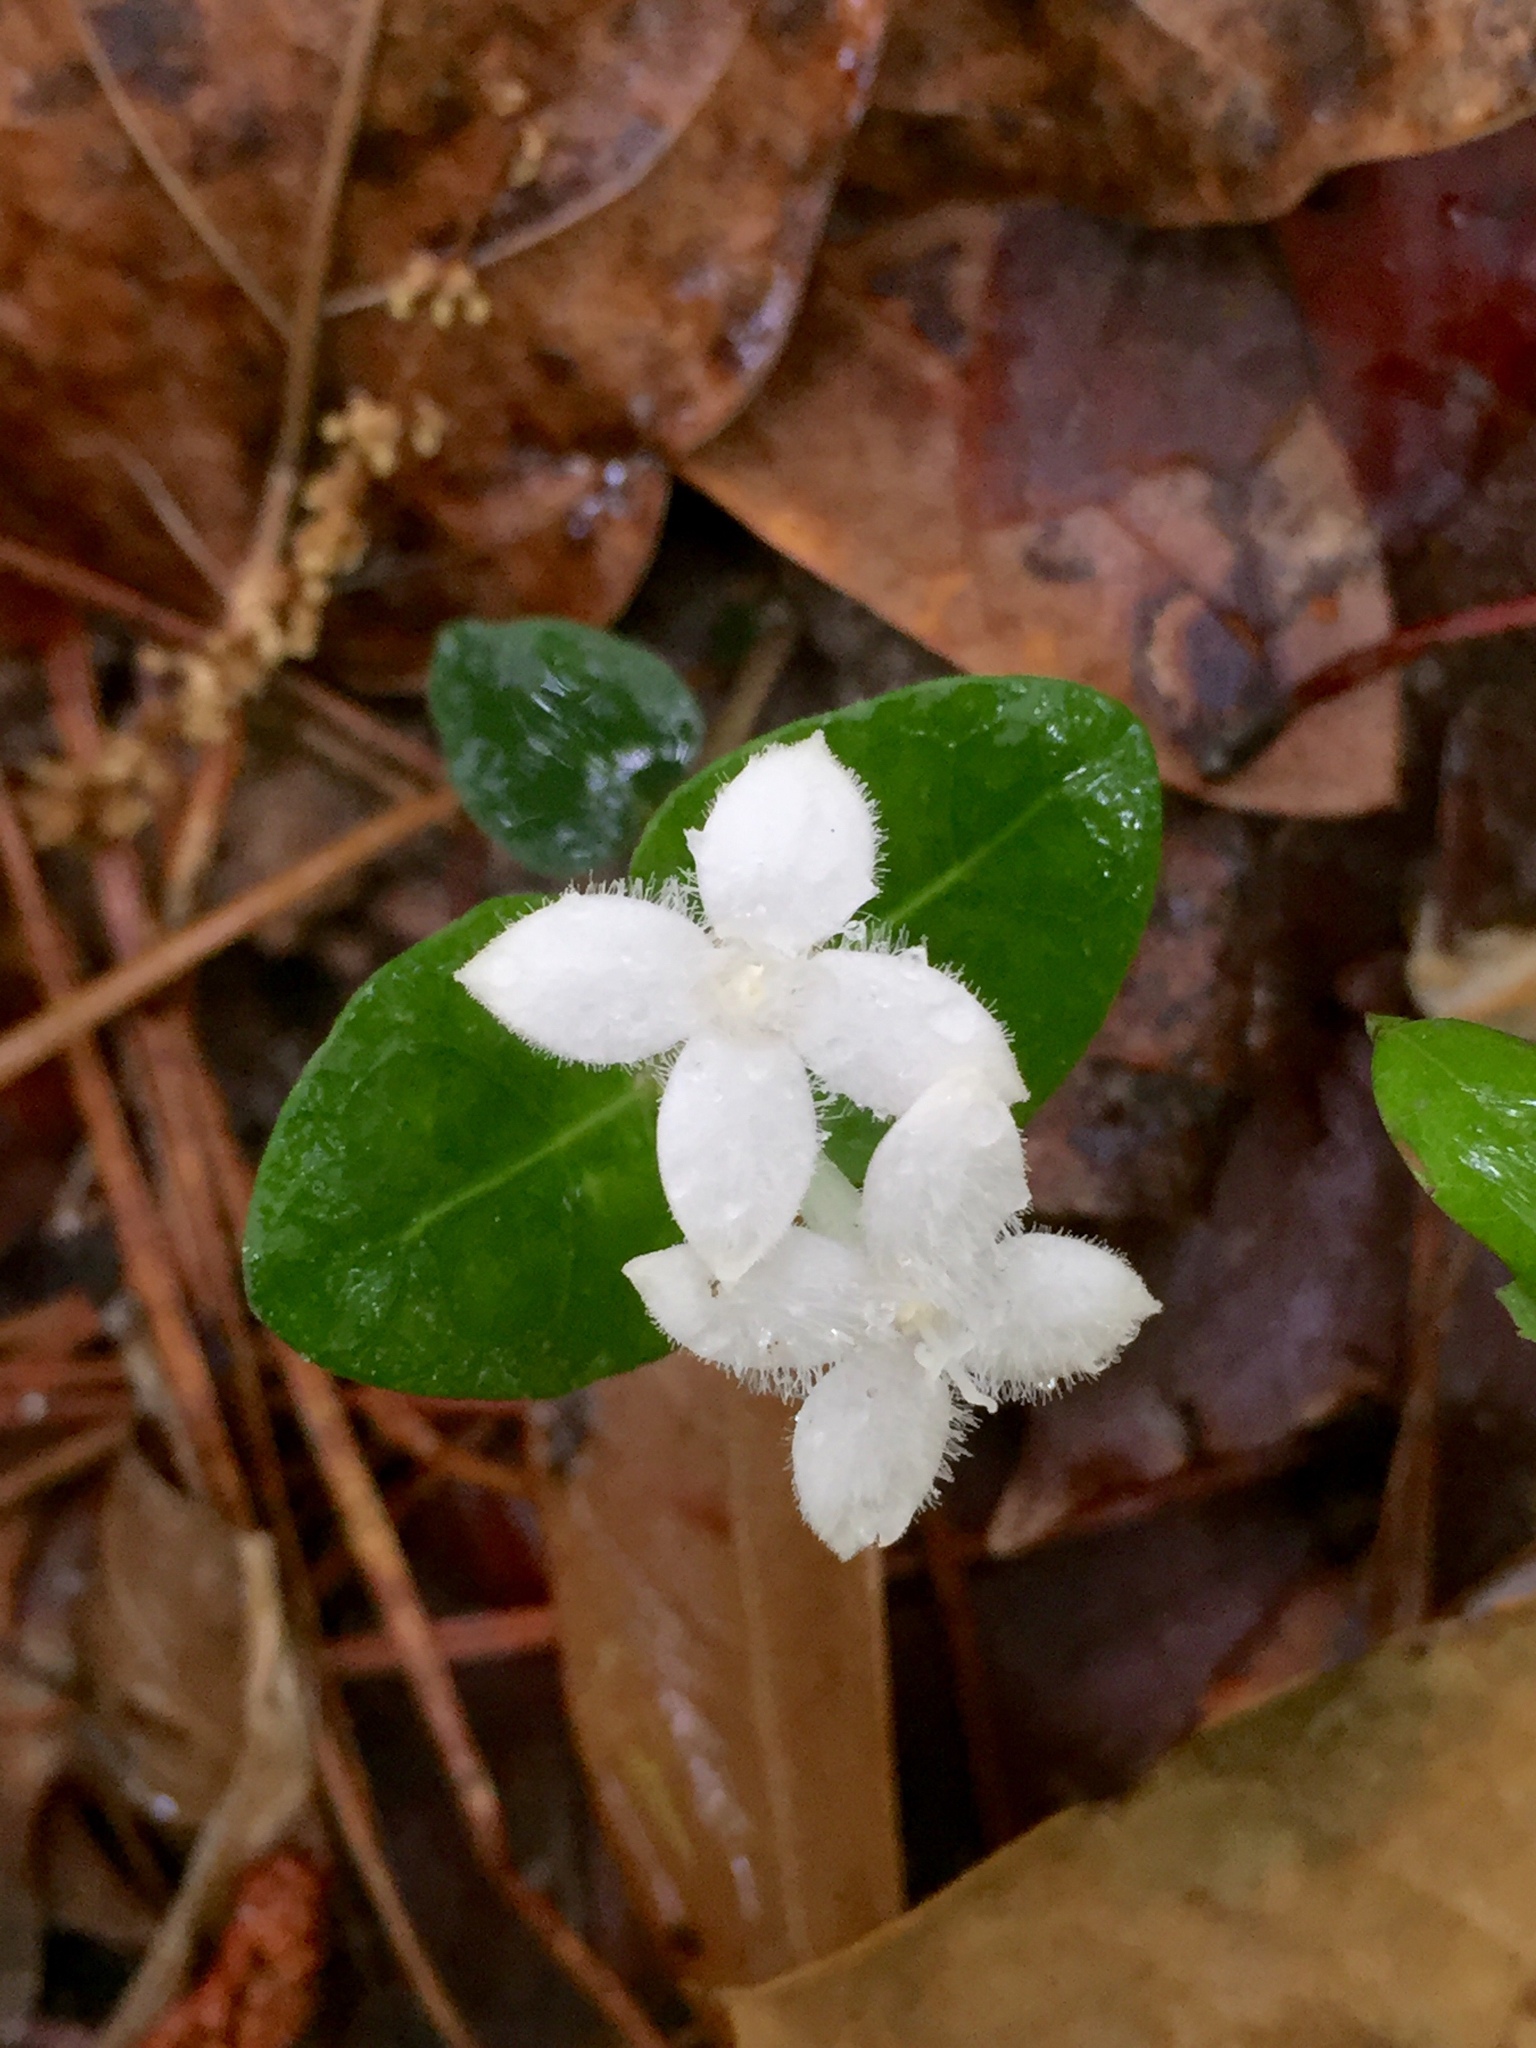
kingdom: Plantae
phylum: Tracheophyta
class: Magnoliopsida
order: Gentianales
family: Rubiaceae
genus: Mitchella
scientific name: Mitchella repens
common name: Partridge-berry
